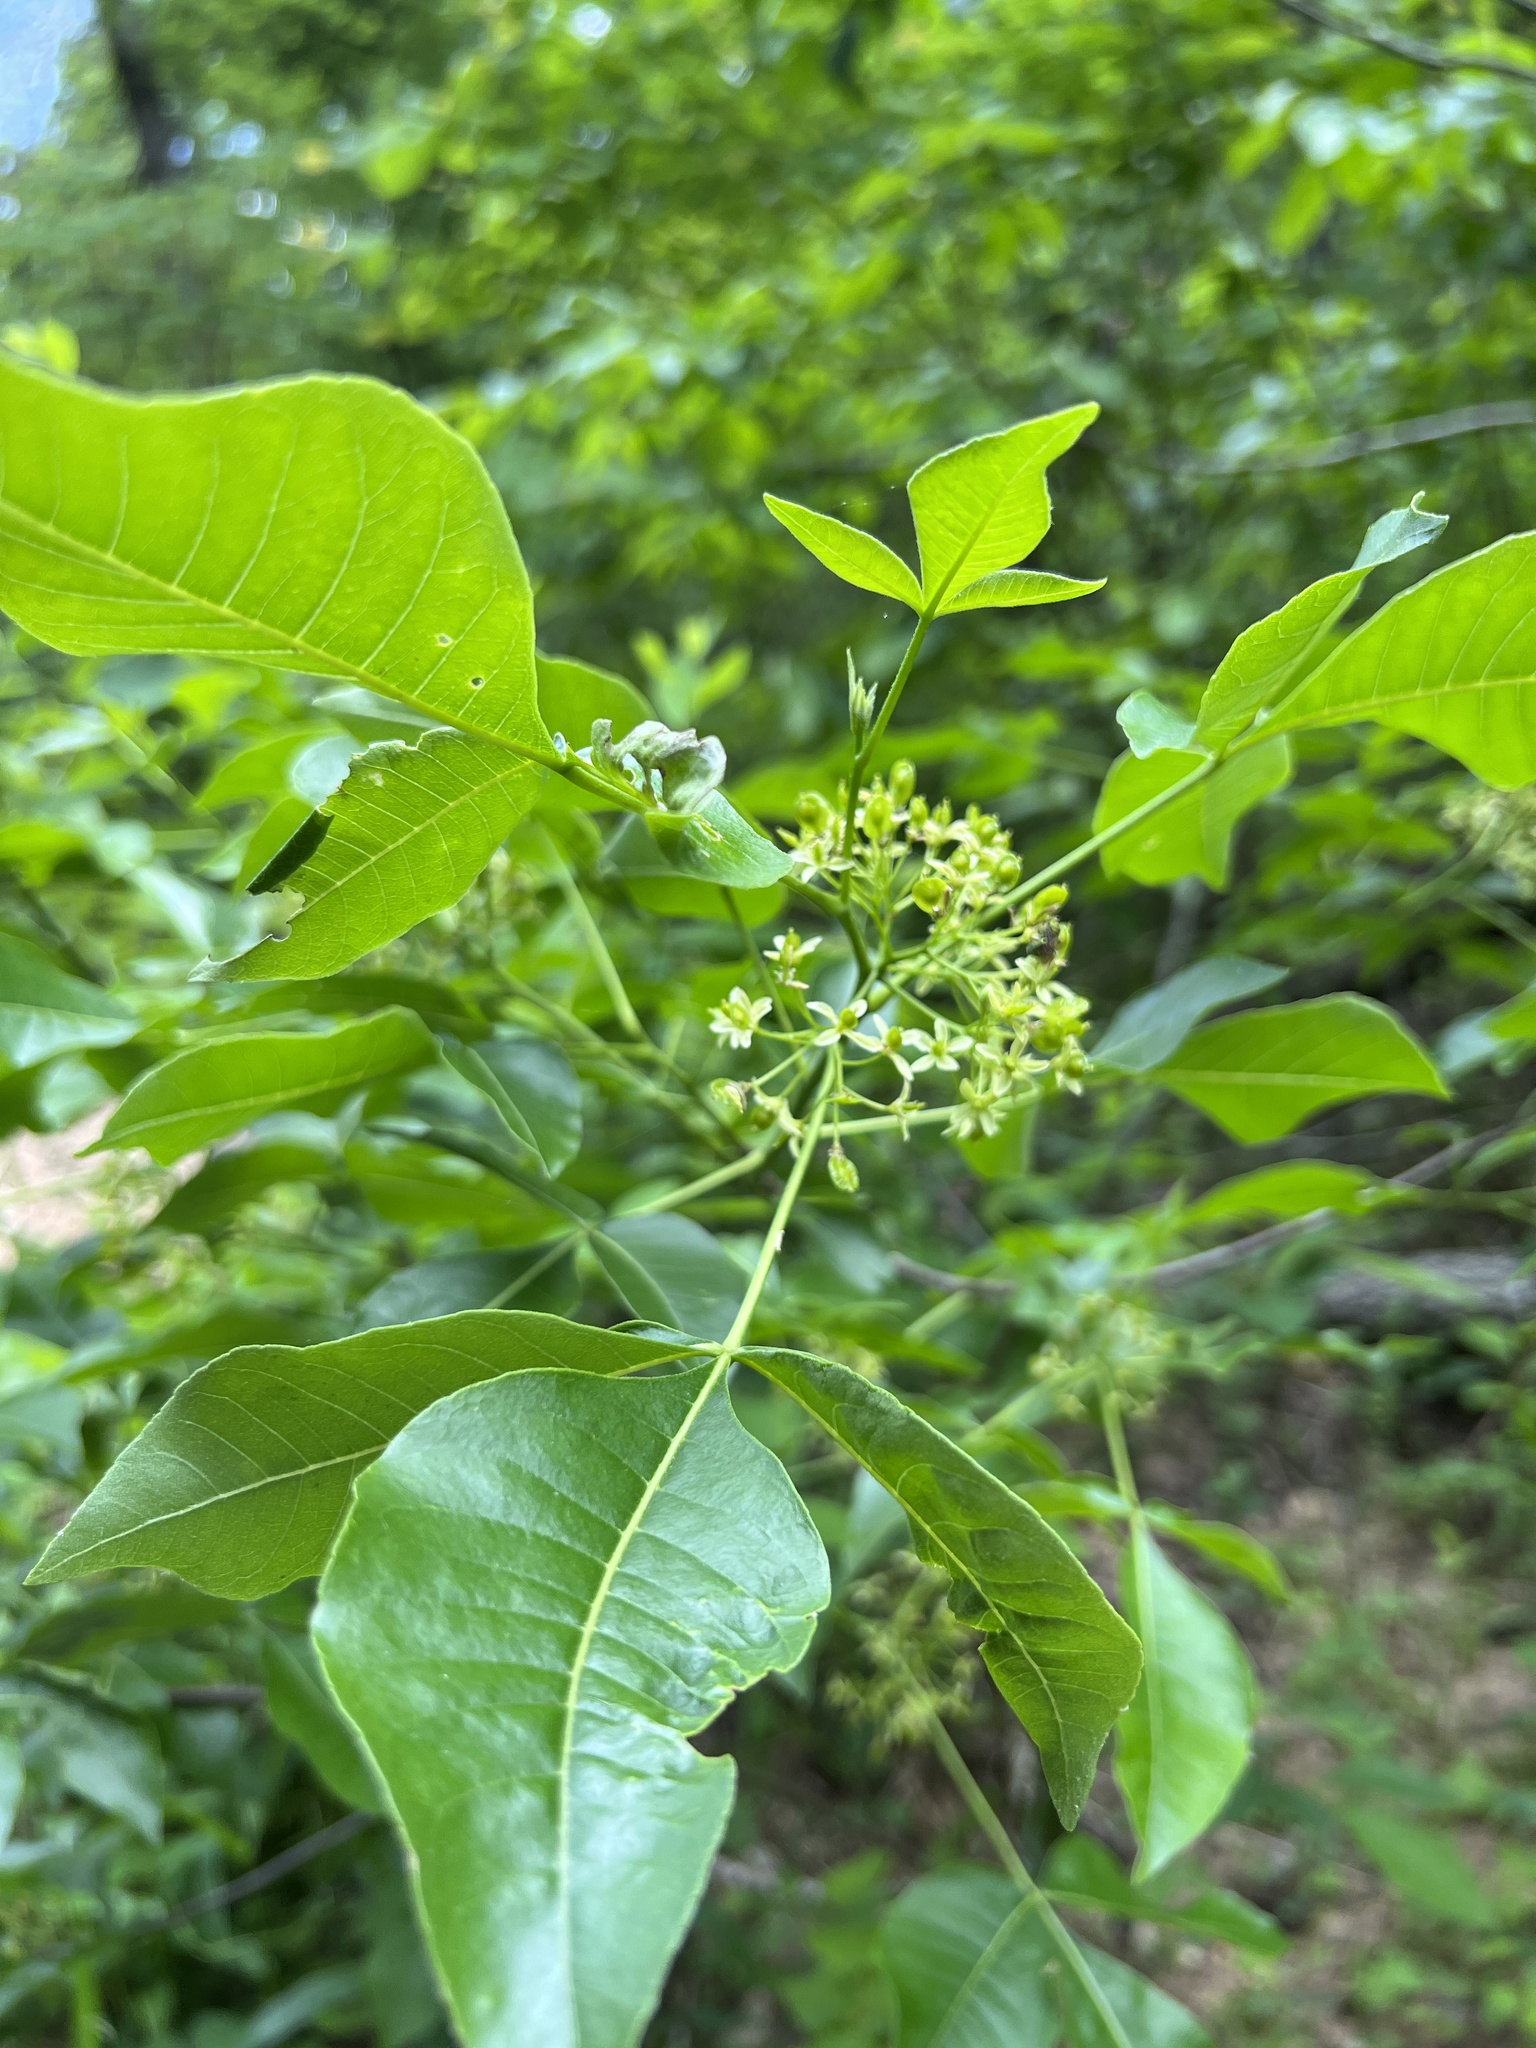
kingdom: Plantae
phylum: Tracheophyta
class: Magnoliopsida
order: Sapindales
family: Rutaceae
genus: Ptelea
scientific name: Ptelea trifoliata
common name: Common hop-tree
